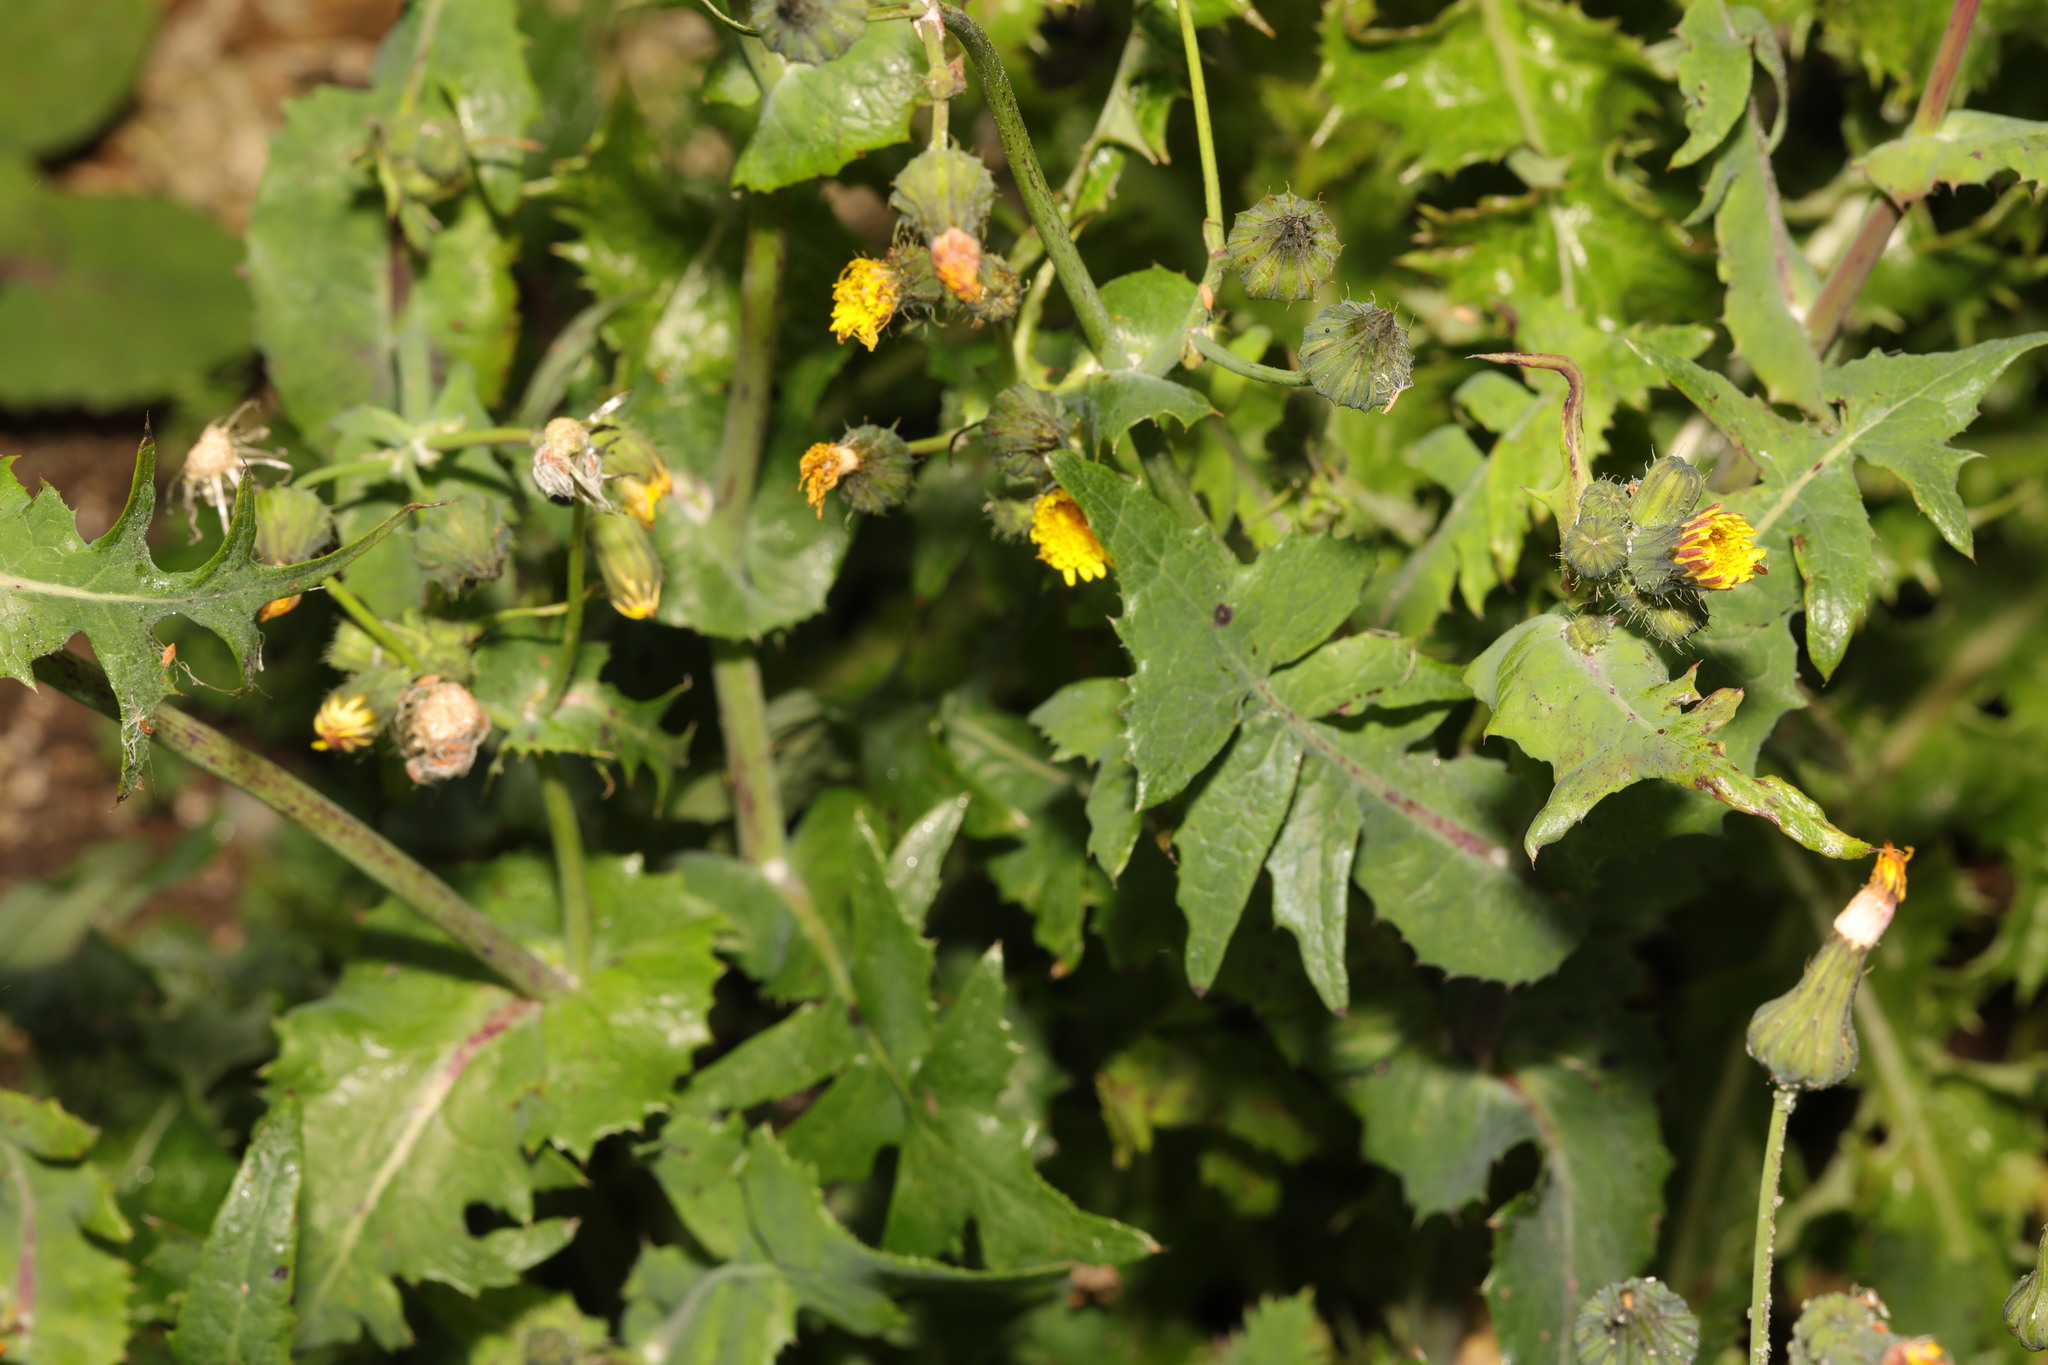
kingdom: Plantae
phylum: Tracheophyta
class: Magnoliopsida
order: Asterales
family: Asteraceae
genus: Sonchus
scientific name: Sonchus oleraceus
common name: Common sowthistle
